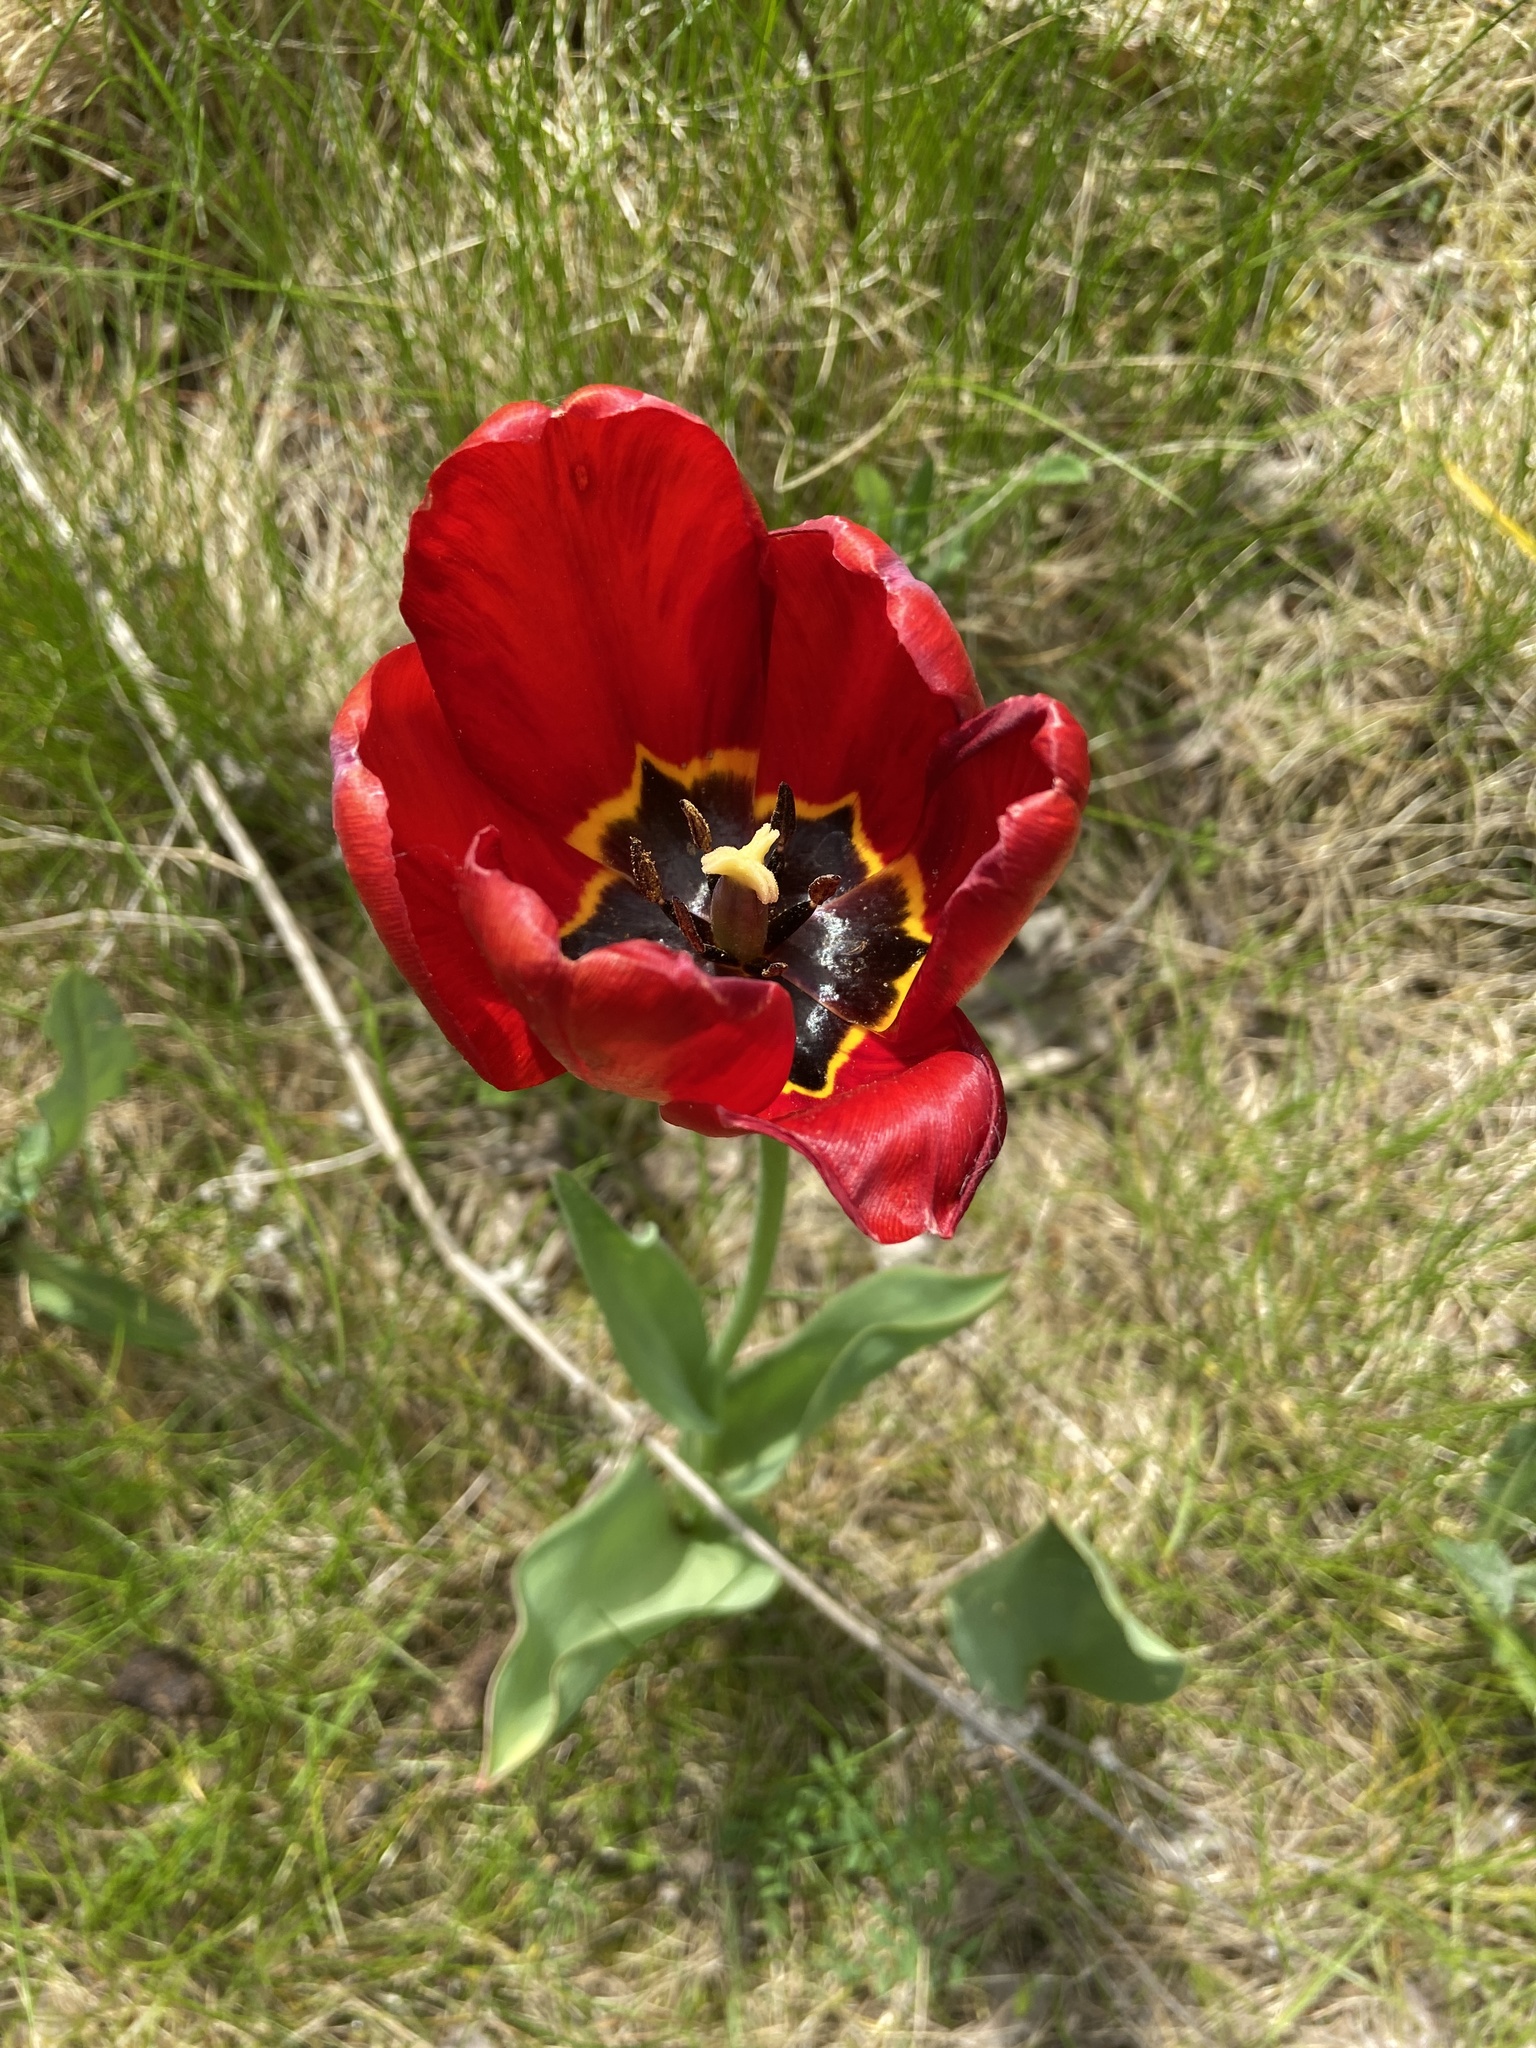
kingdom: Plantae
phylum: Tracheophyta
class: Liliopsida
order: Liliales
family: Liliaceae
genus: Tulipa
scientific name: Tulipa gesneriana
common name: Garden tulip
